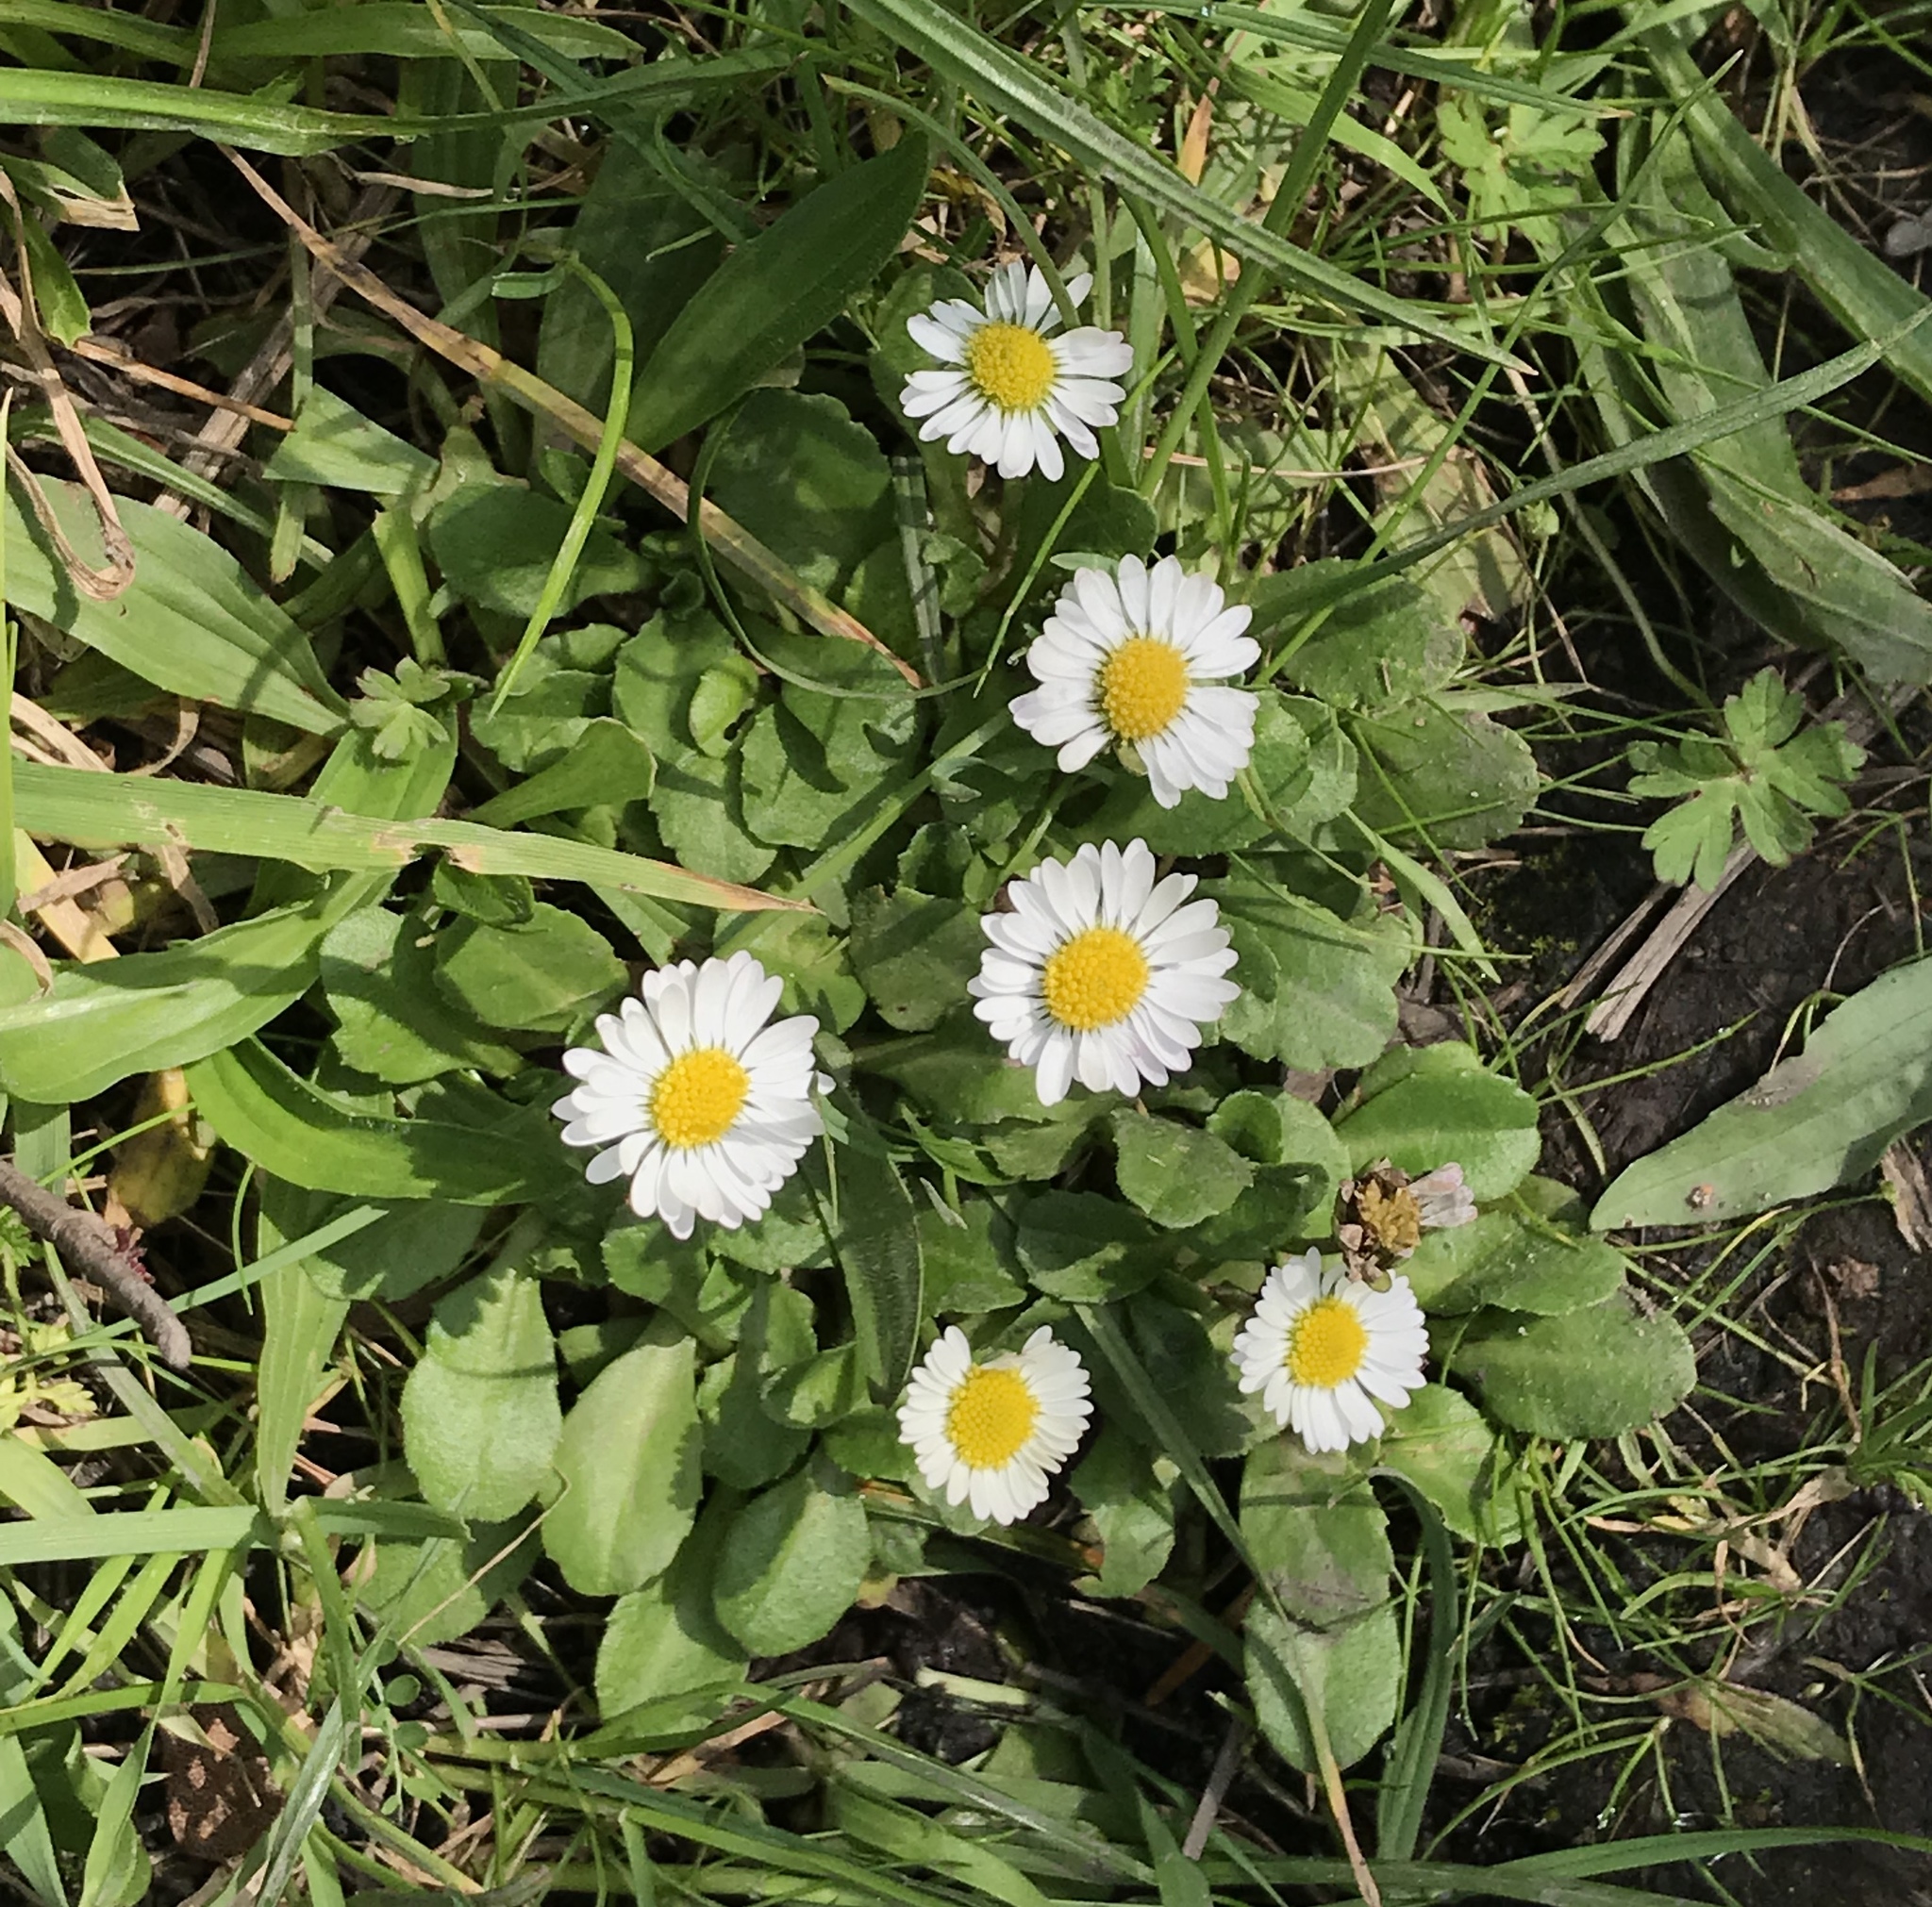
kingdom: Plantae
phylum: Tracheophyta
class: Magnoliopsida
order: Asterales
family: Asteraceae
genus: Bellis
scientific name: Bellis perennis
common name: Lawndaisy
